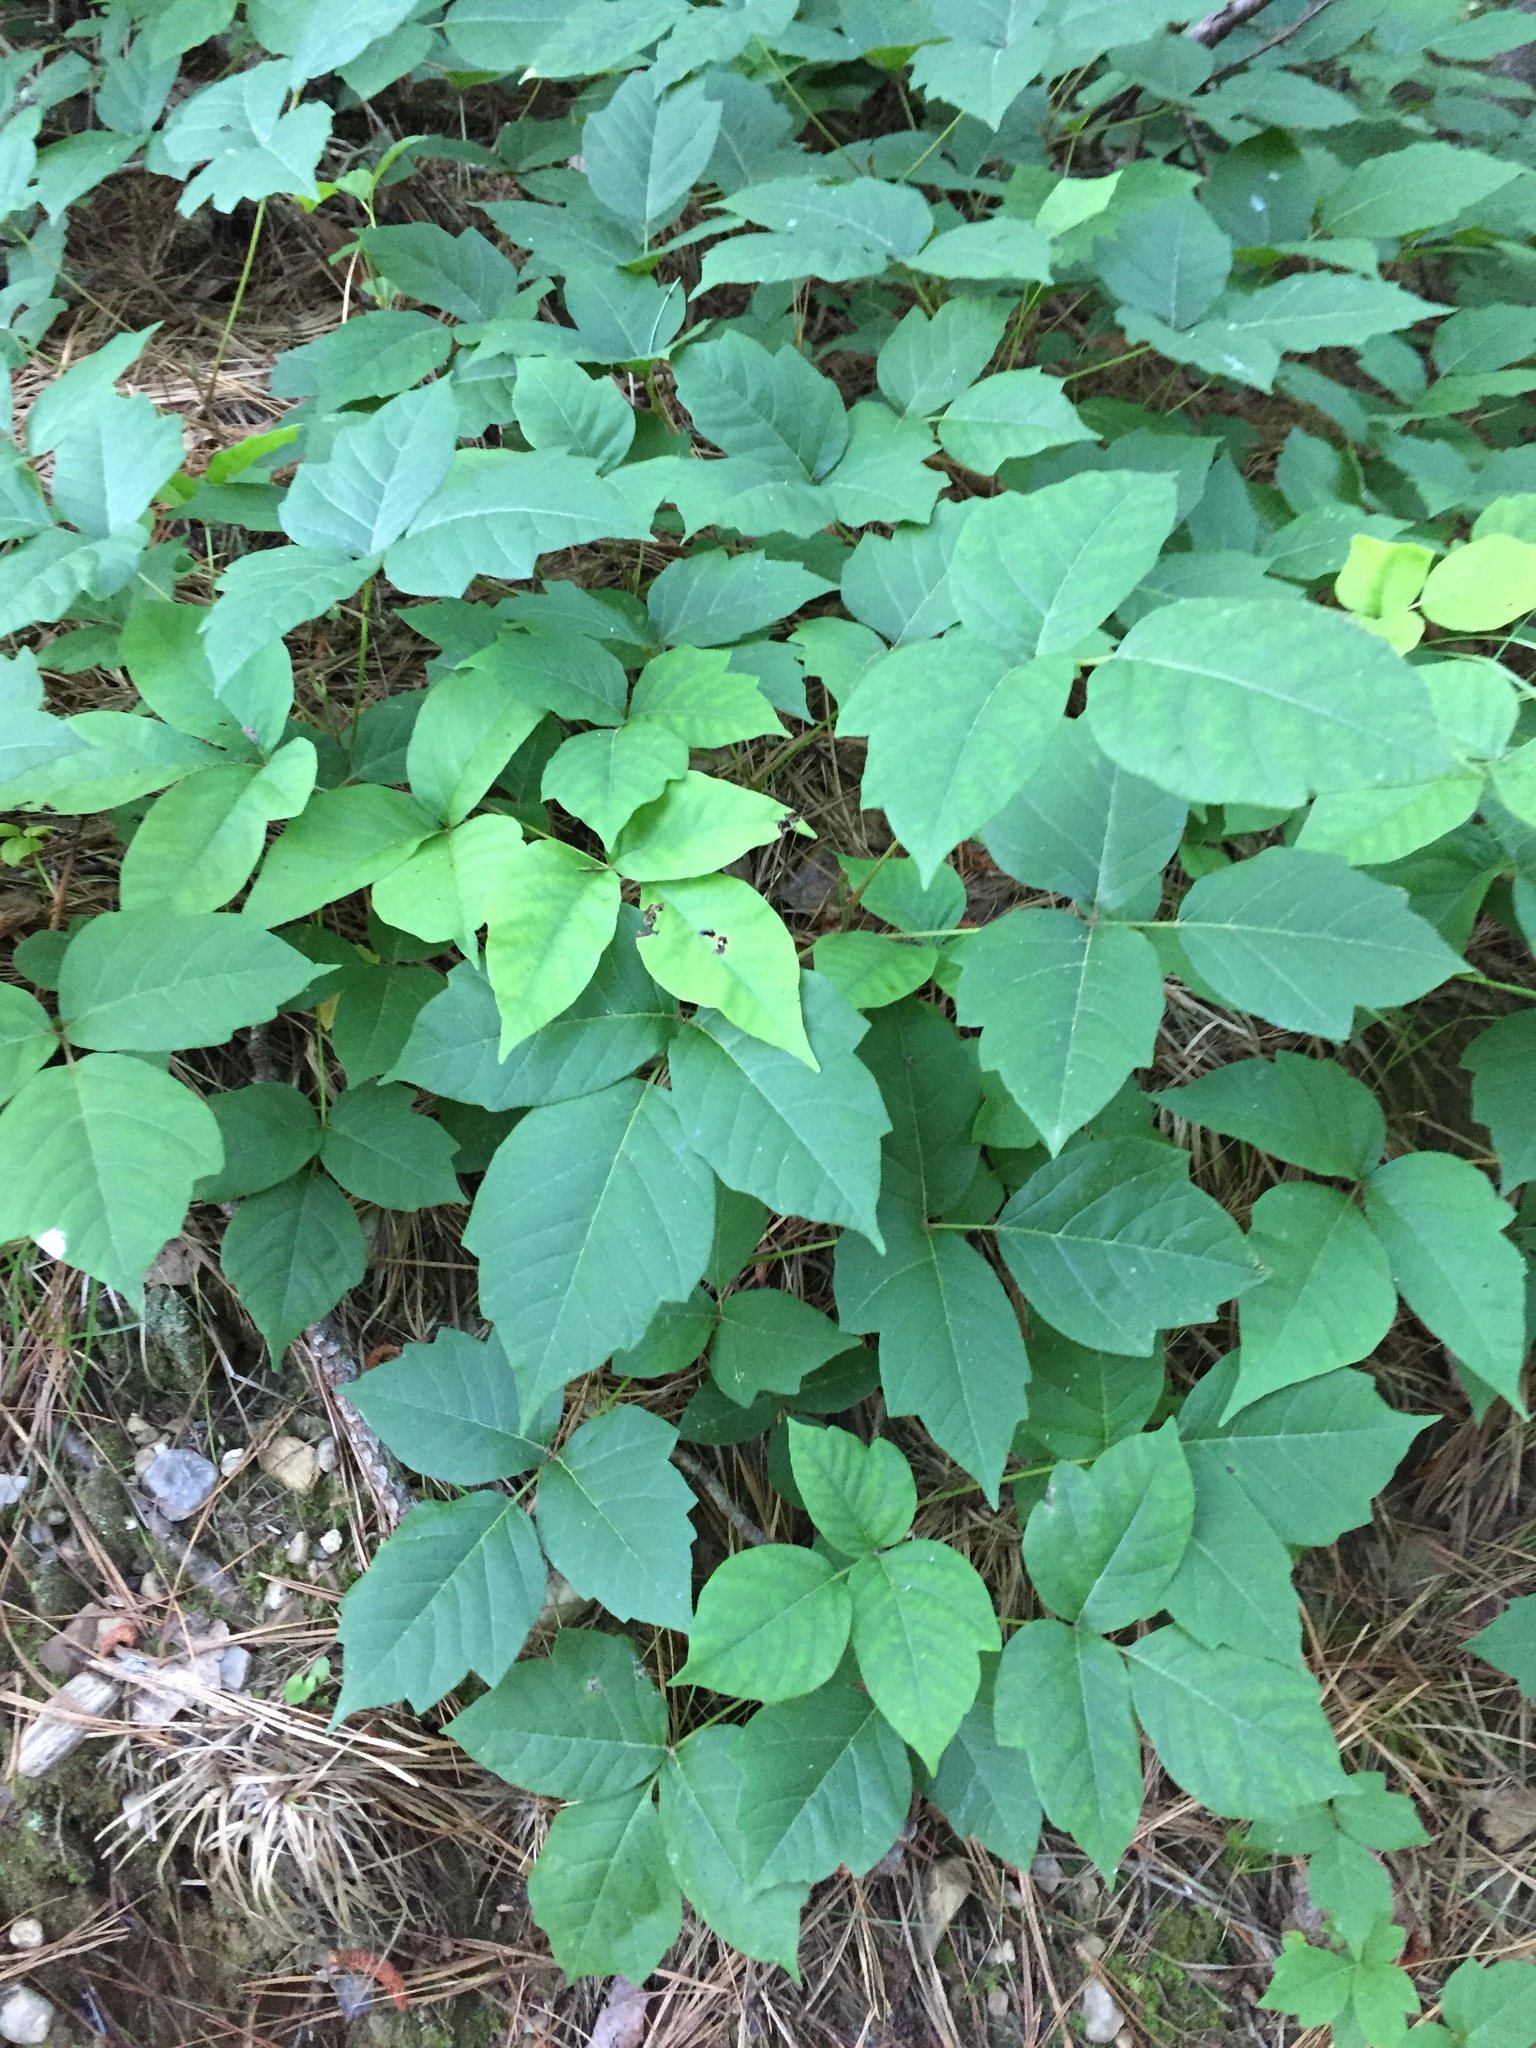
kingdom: Plantae
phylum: Tracheophyta
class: Magnoliopsida
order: Sapindales
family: Anacardiaceae
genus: Toxicodendron
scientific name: Toxicodendron radicans
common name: Poison ivy
